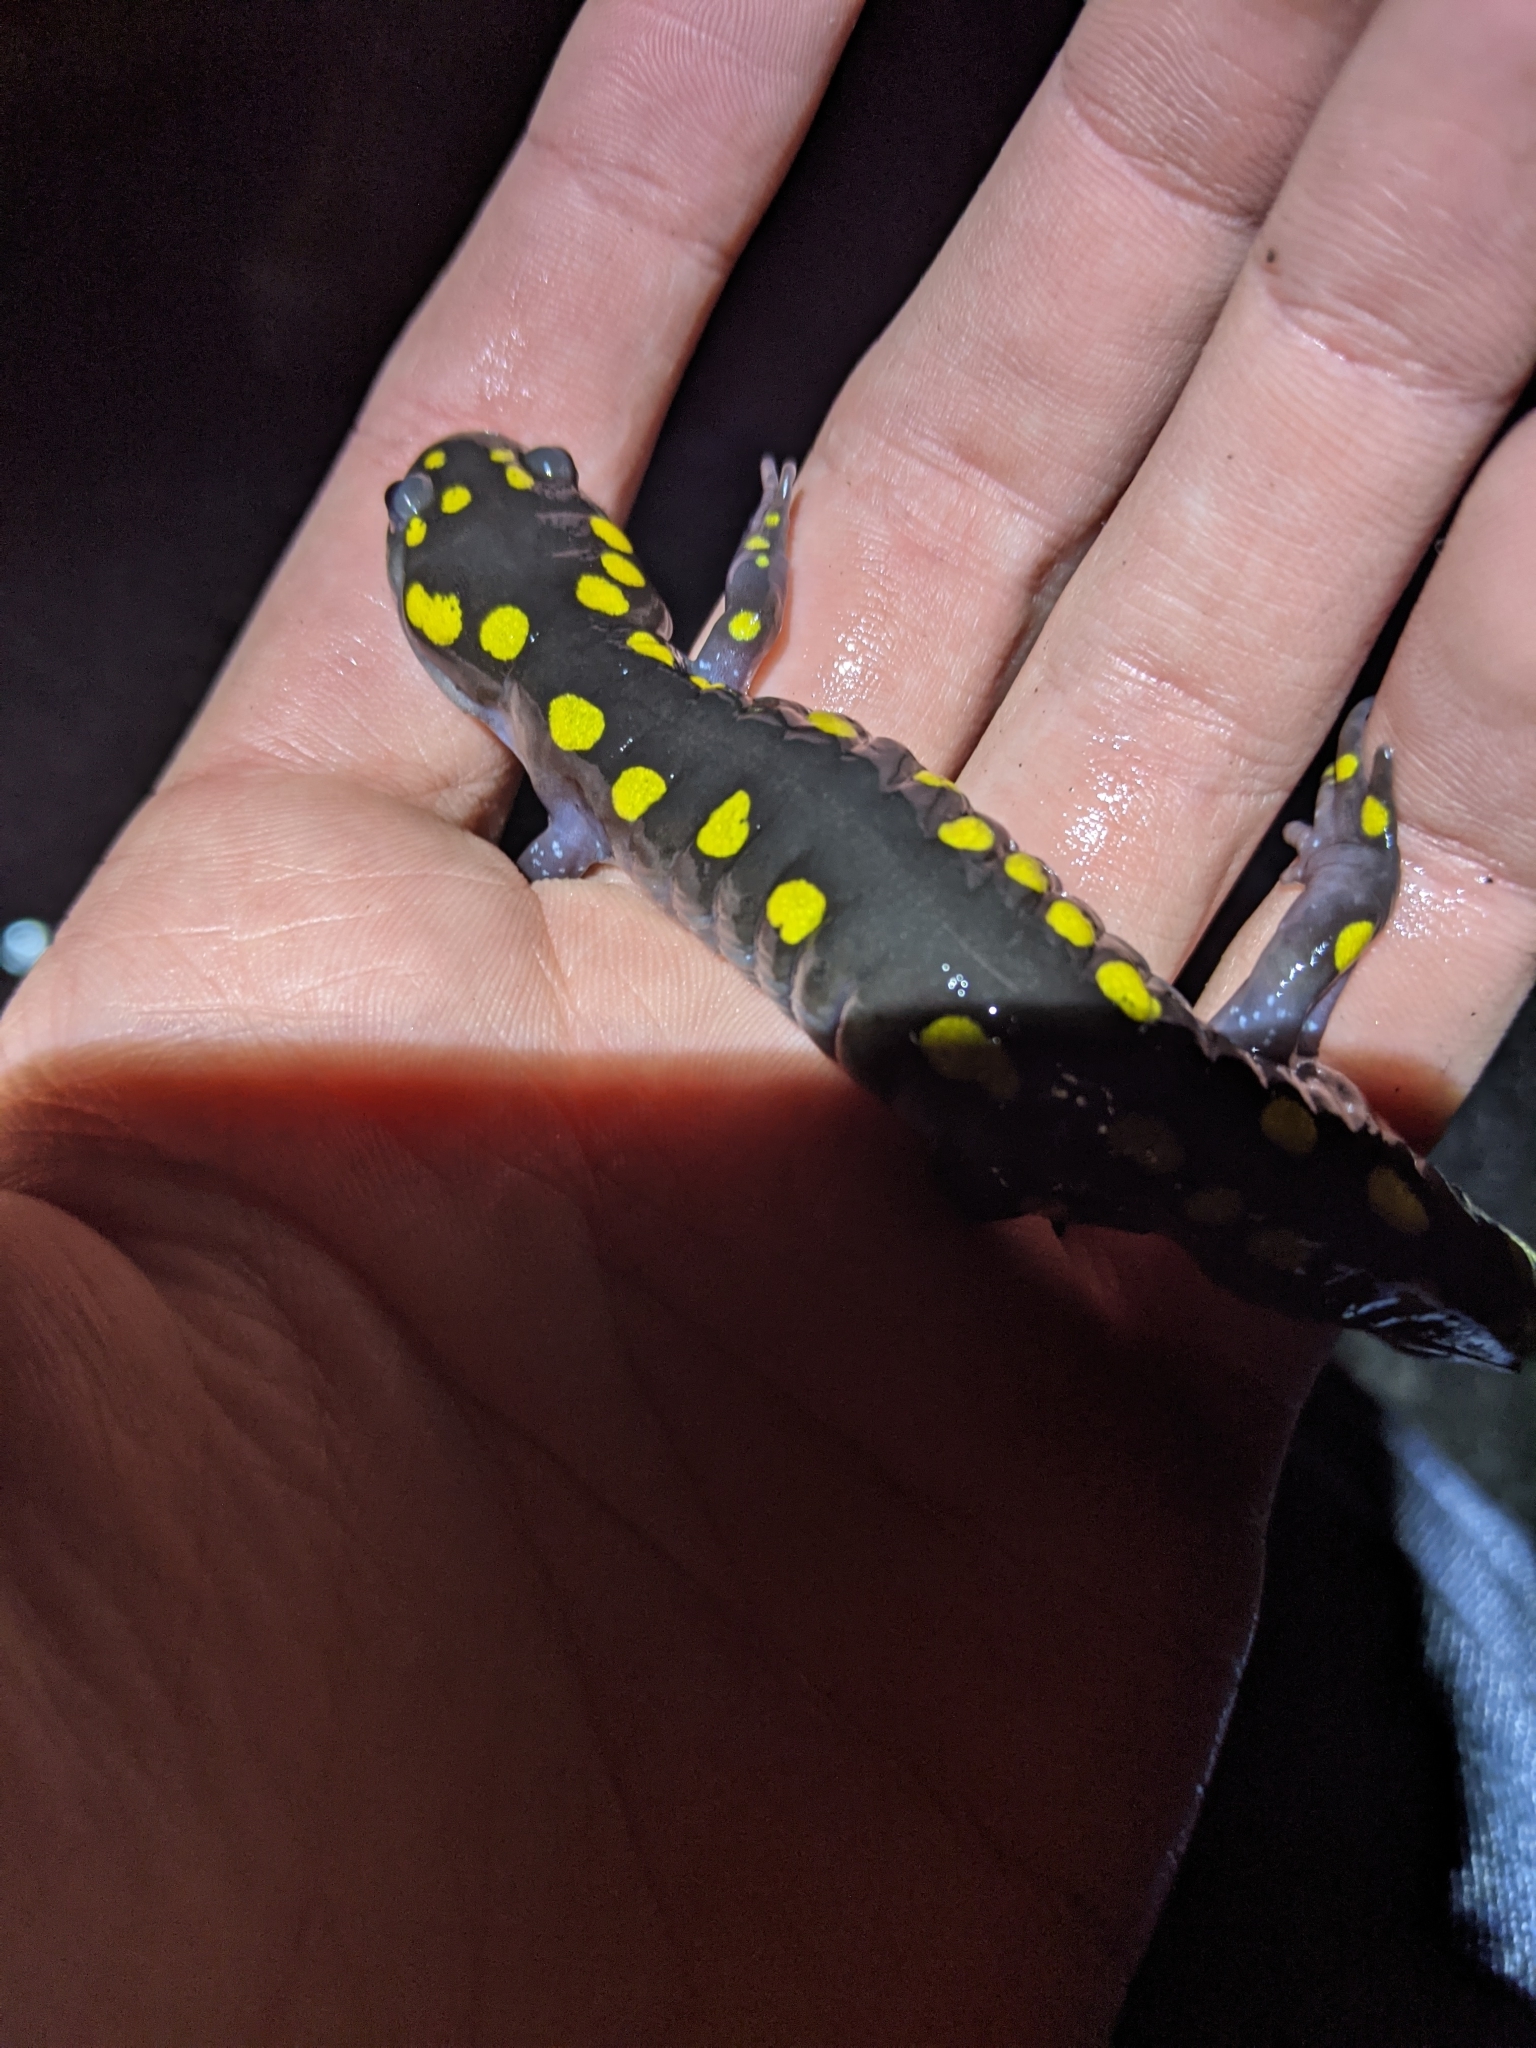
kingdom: Animalia
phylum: Chordata
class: Amphibia
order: Caudata
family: Ambystomatidae
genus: Ambystoma
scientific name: Ambystoma maculatum
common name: Spotted salamander
